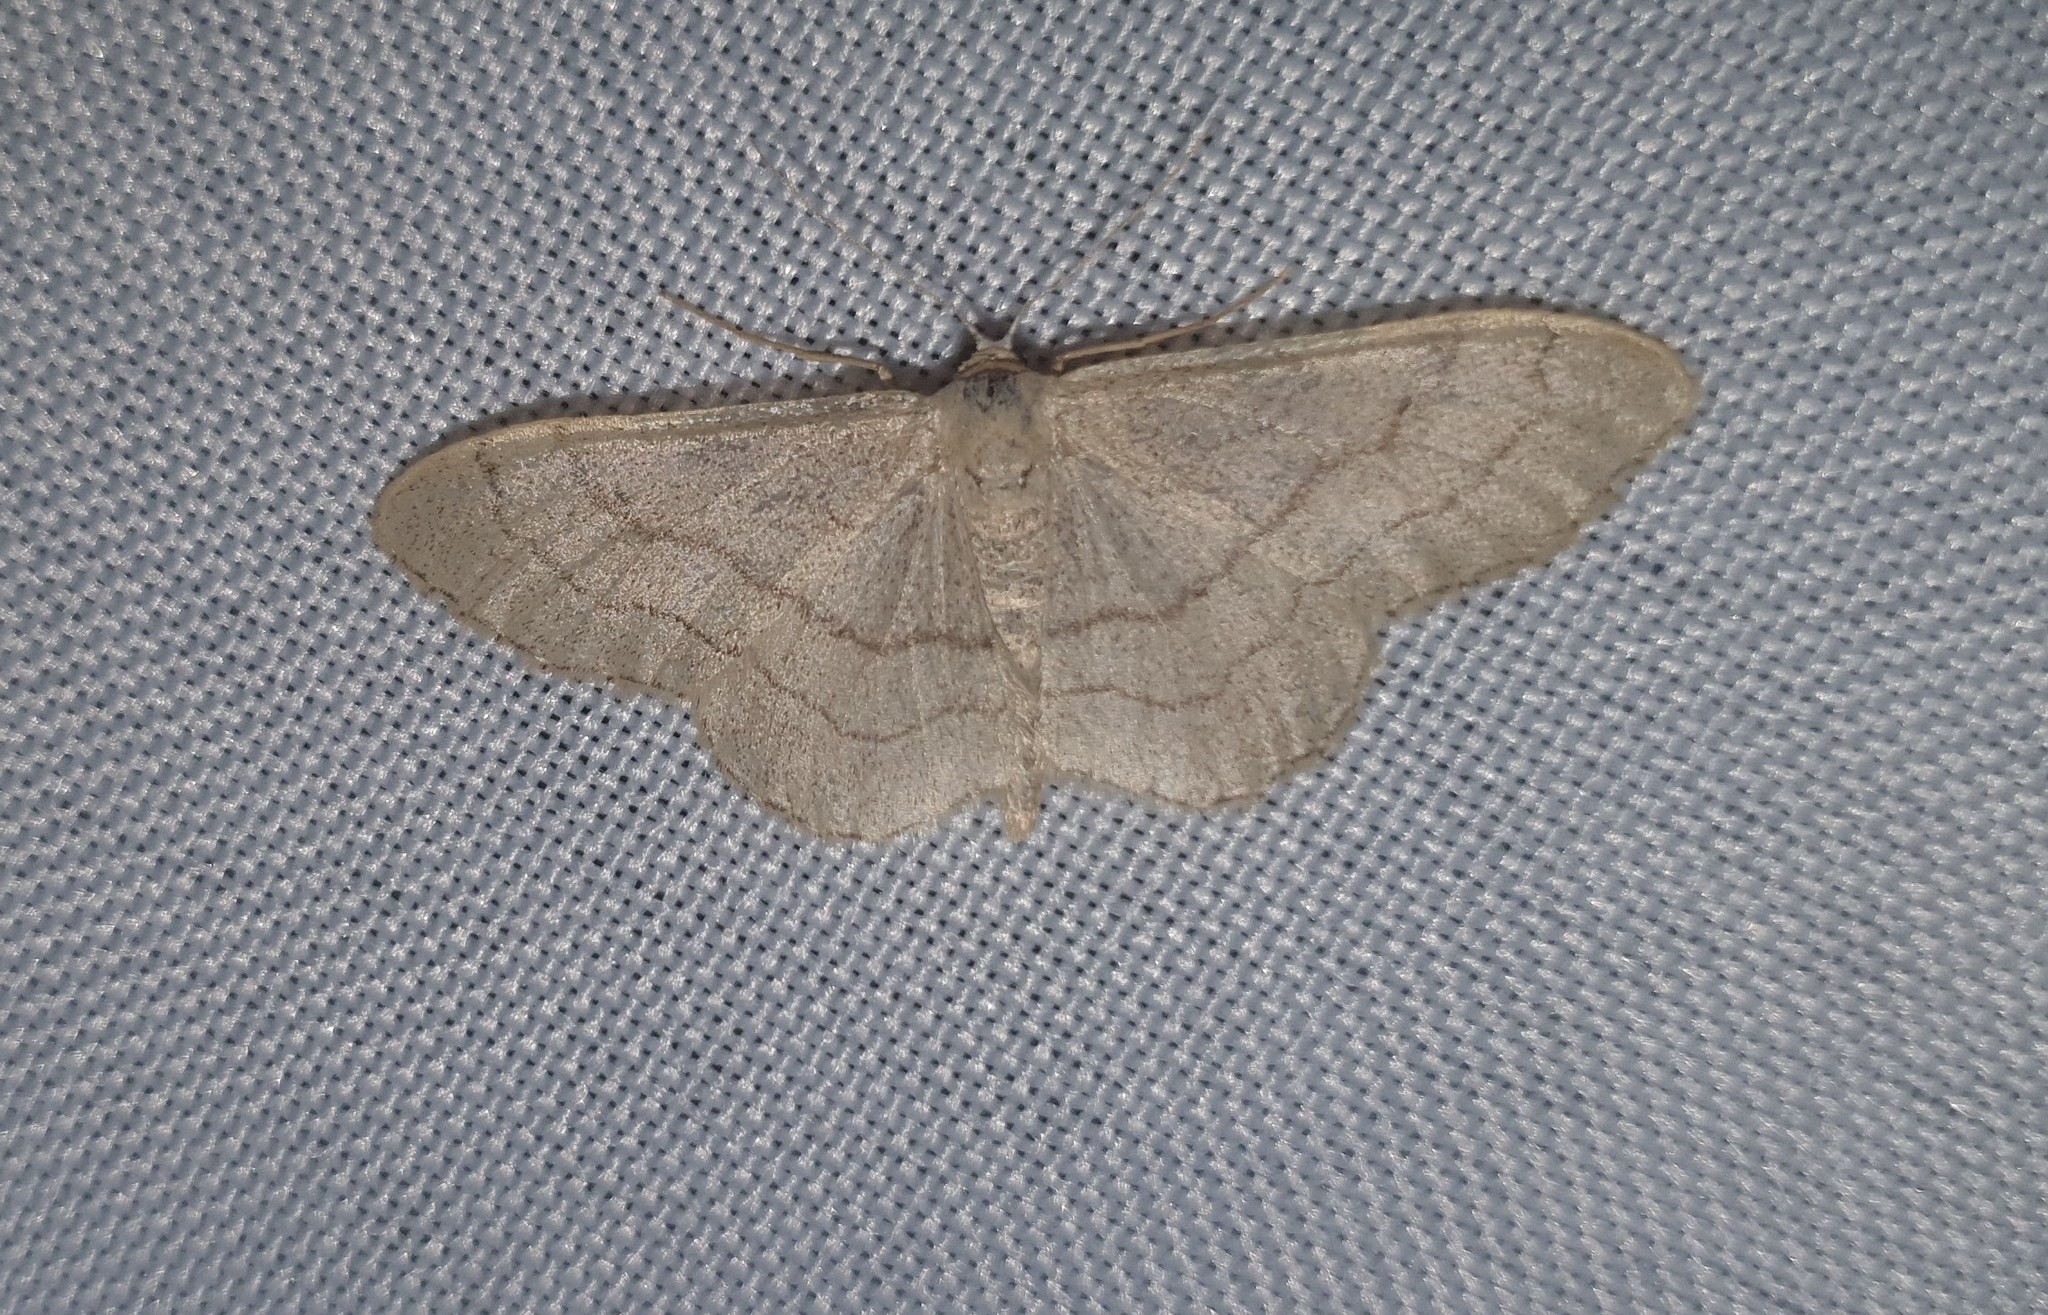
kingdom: Animalia
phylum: Arthropoda
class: Insecta
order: Lepidoptera
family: Geometridae
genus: Idaea
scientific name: Idaea aversata
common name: Riband wave
